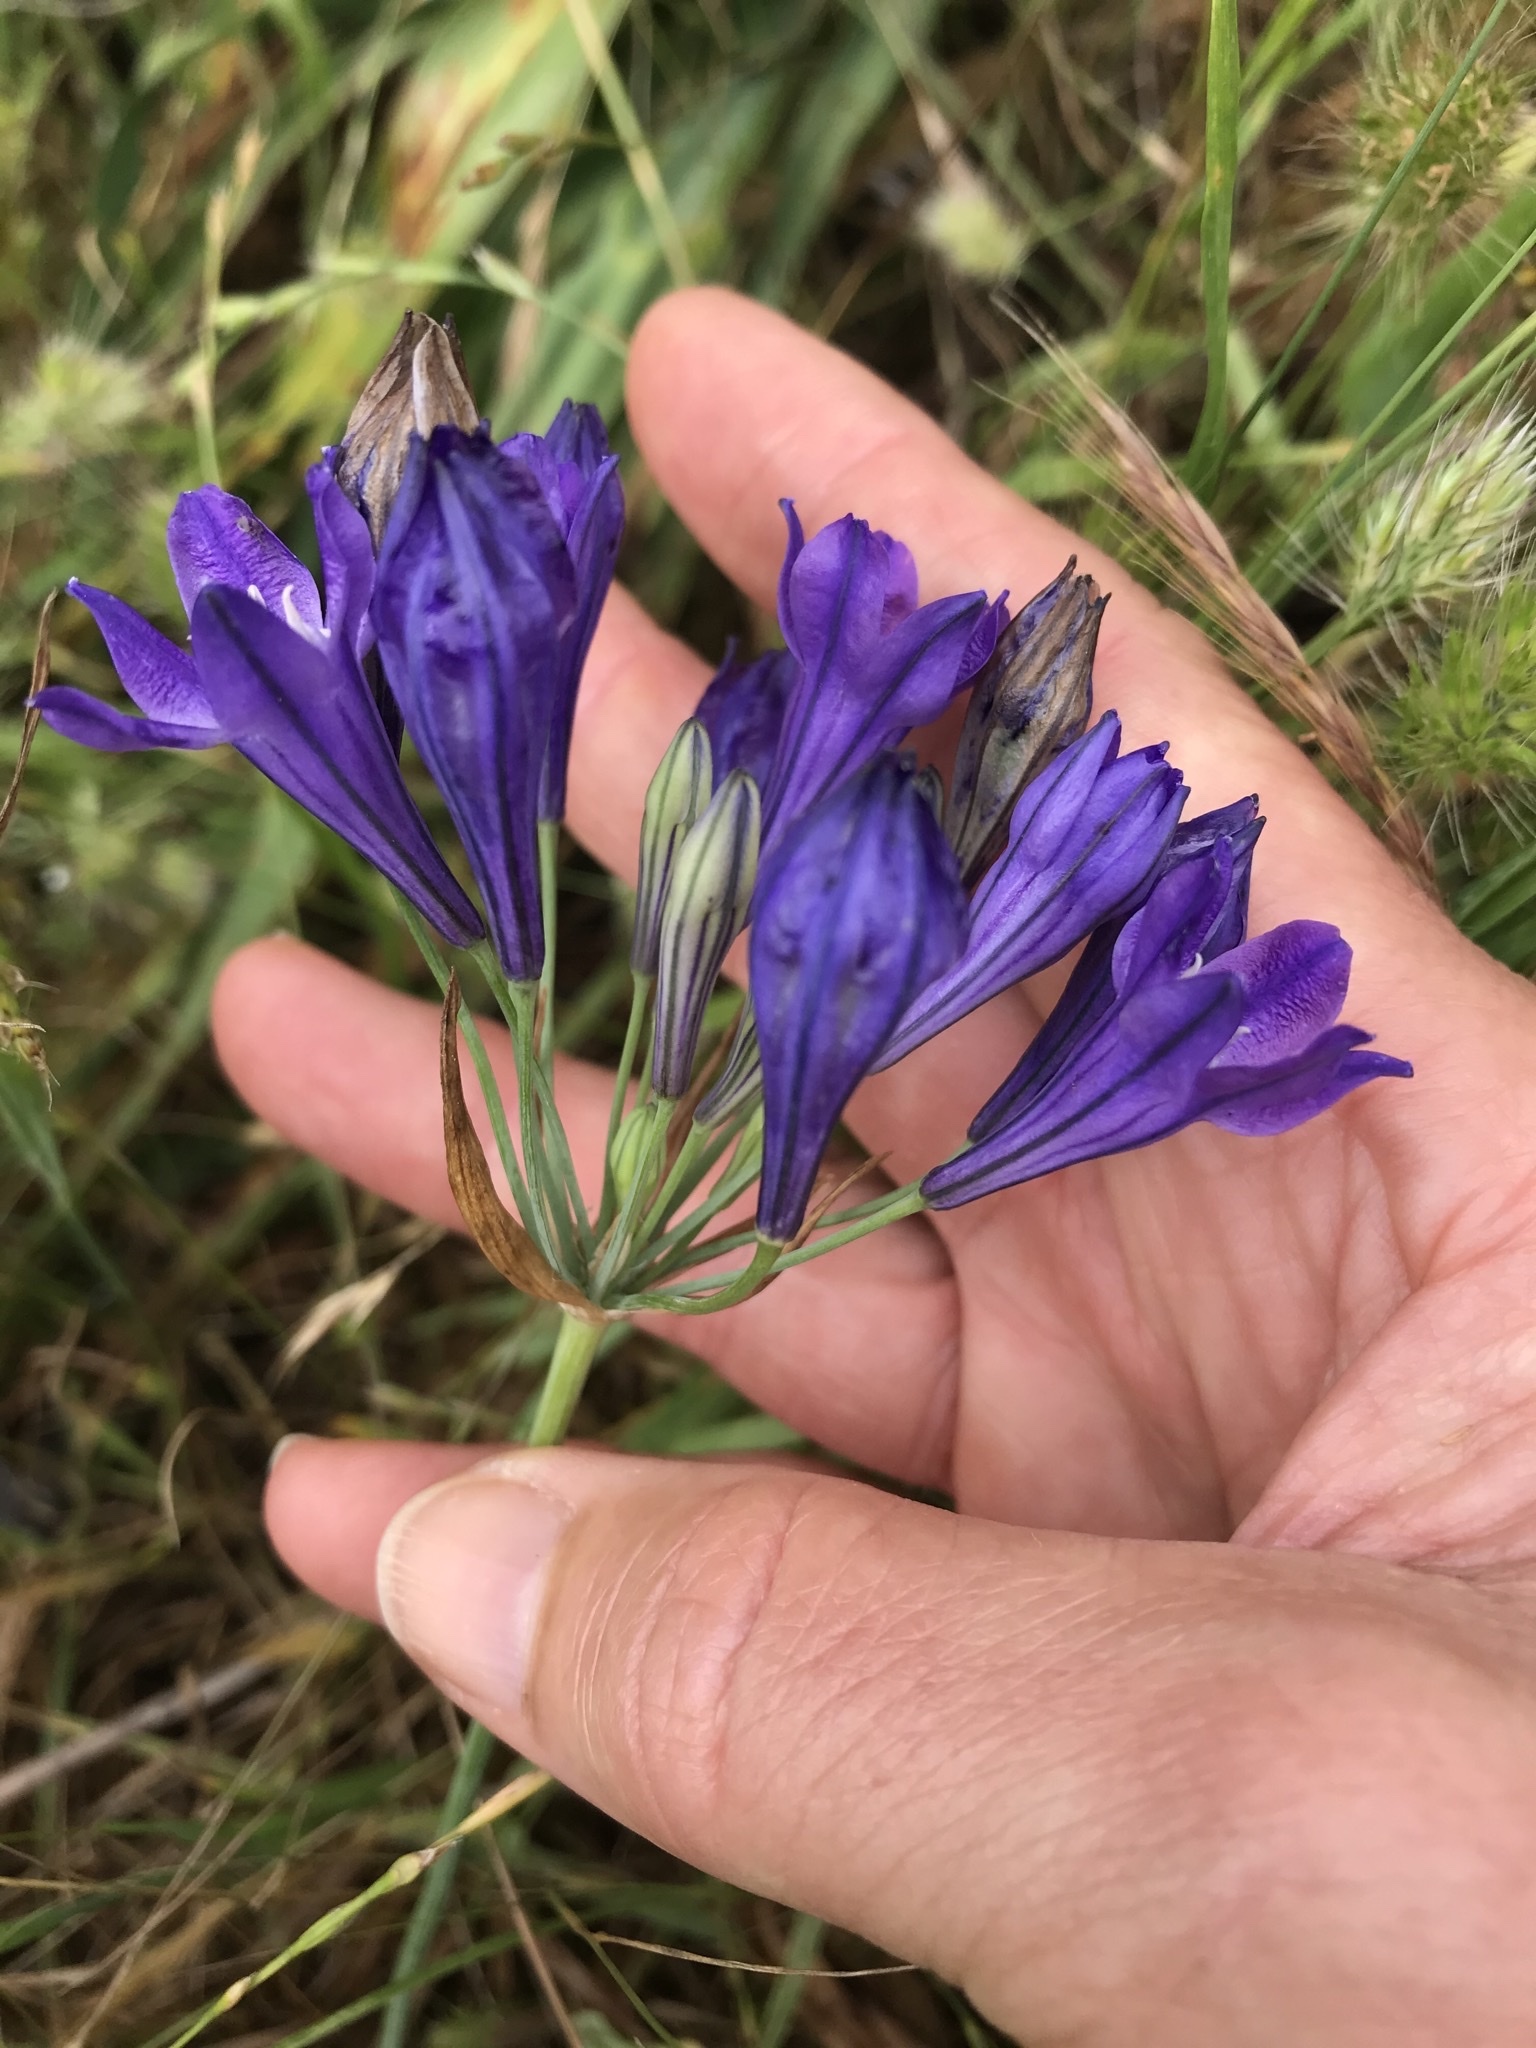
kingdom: Plantae
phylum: Tracheophyta
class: Liliopsida
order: Asparagales
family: Asparagaceae
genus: Triteleia
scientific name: Triteleia laxa
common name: Triplet-lily
